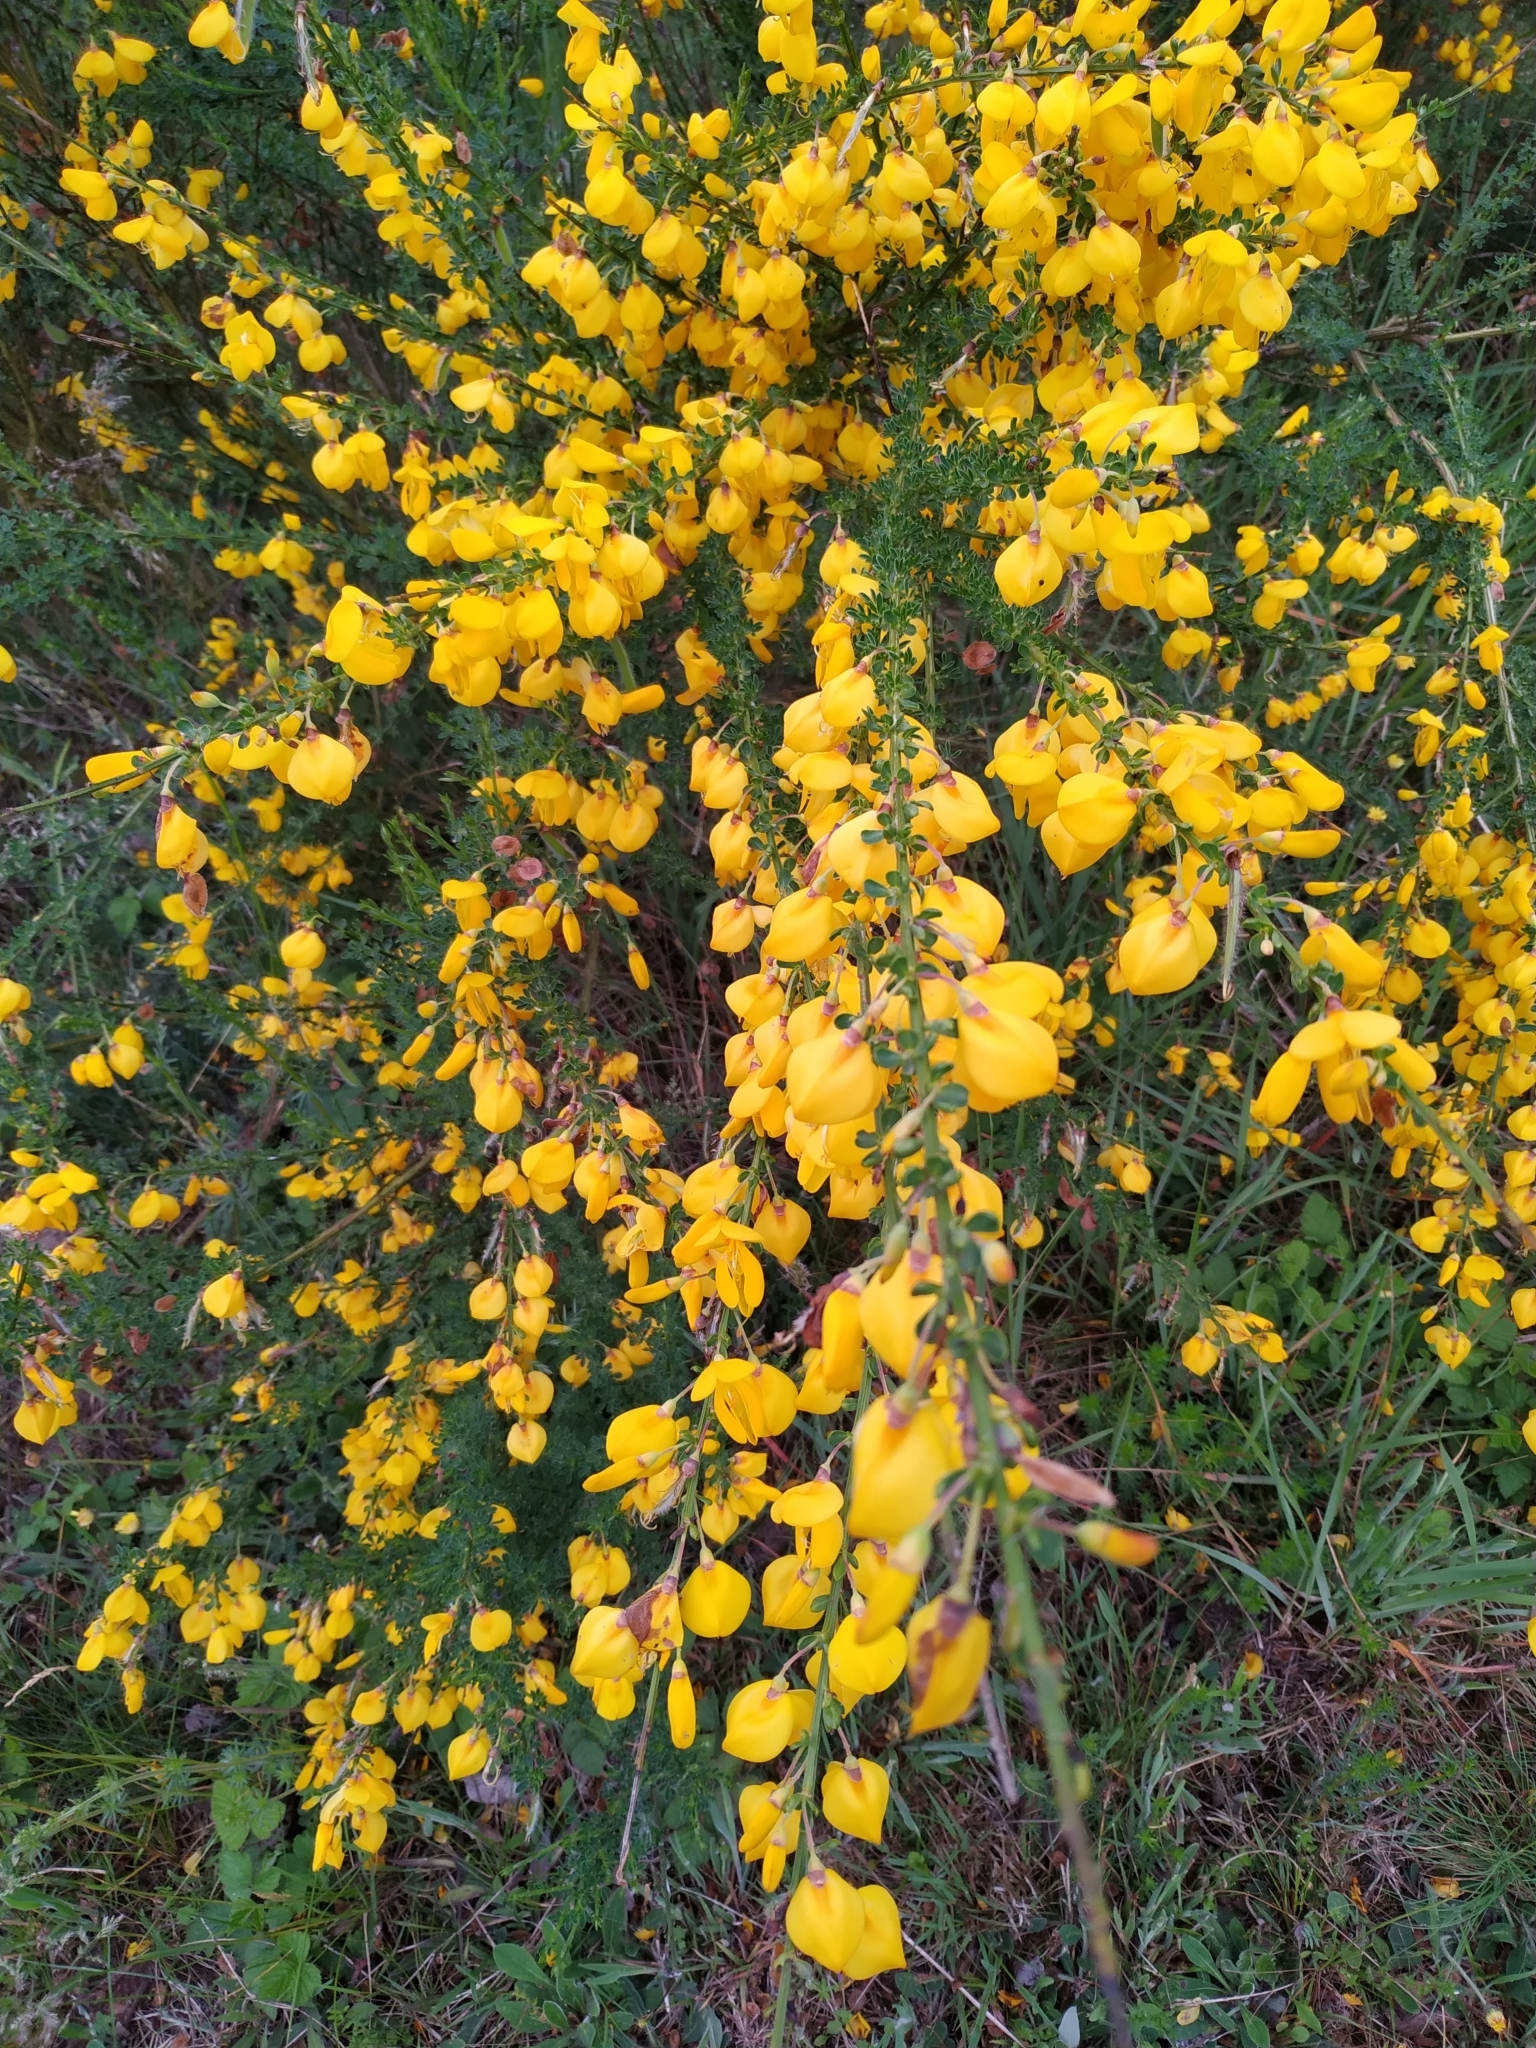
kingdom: Plantae
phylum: Tracheophyta
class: Magnoliopsida
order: Fabales
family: Fabaceae
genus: Cytisus
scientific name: Cytisus scoparius
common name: Scotch broom
